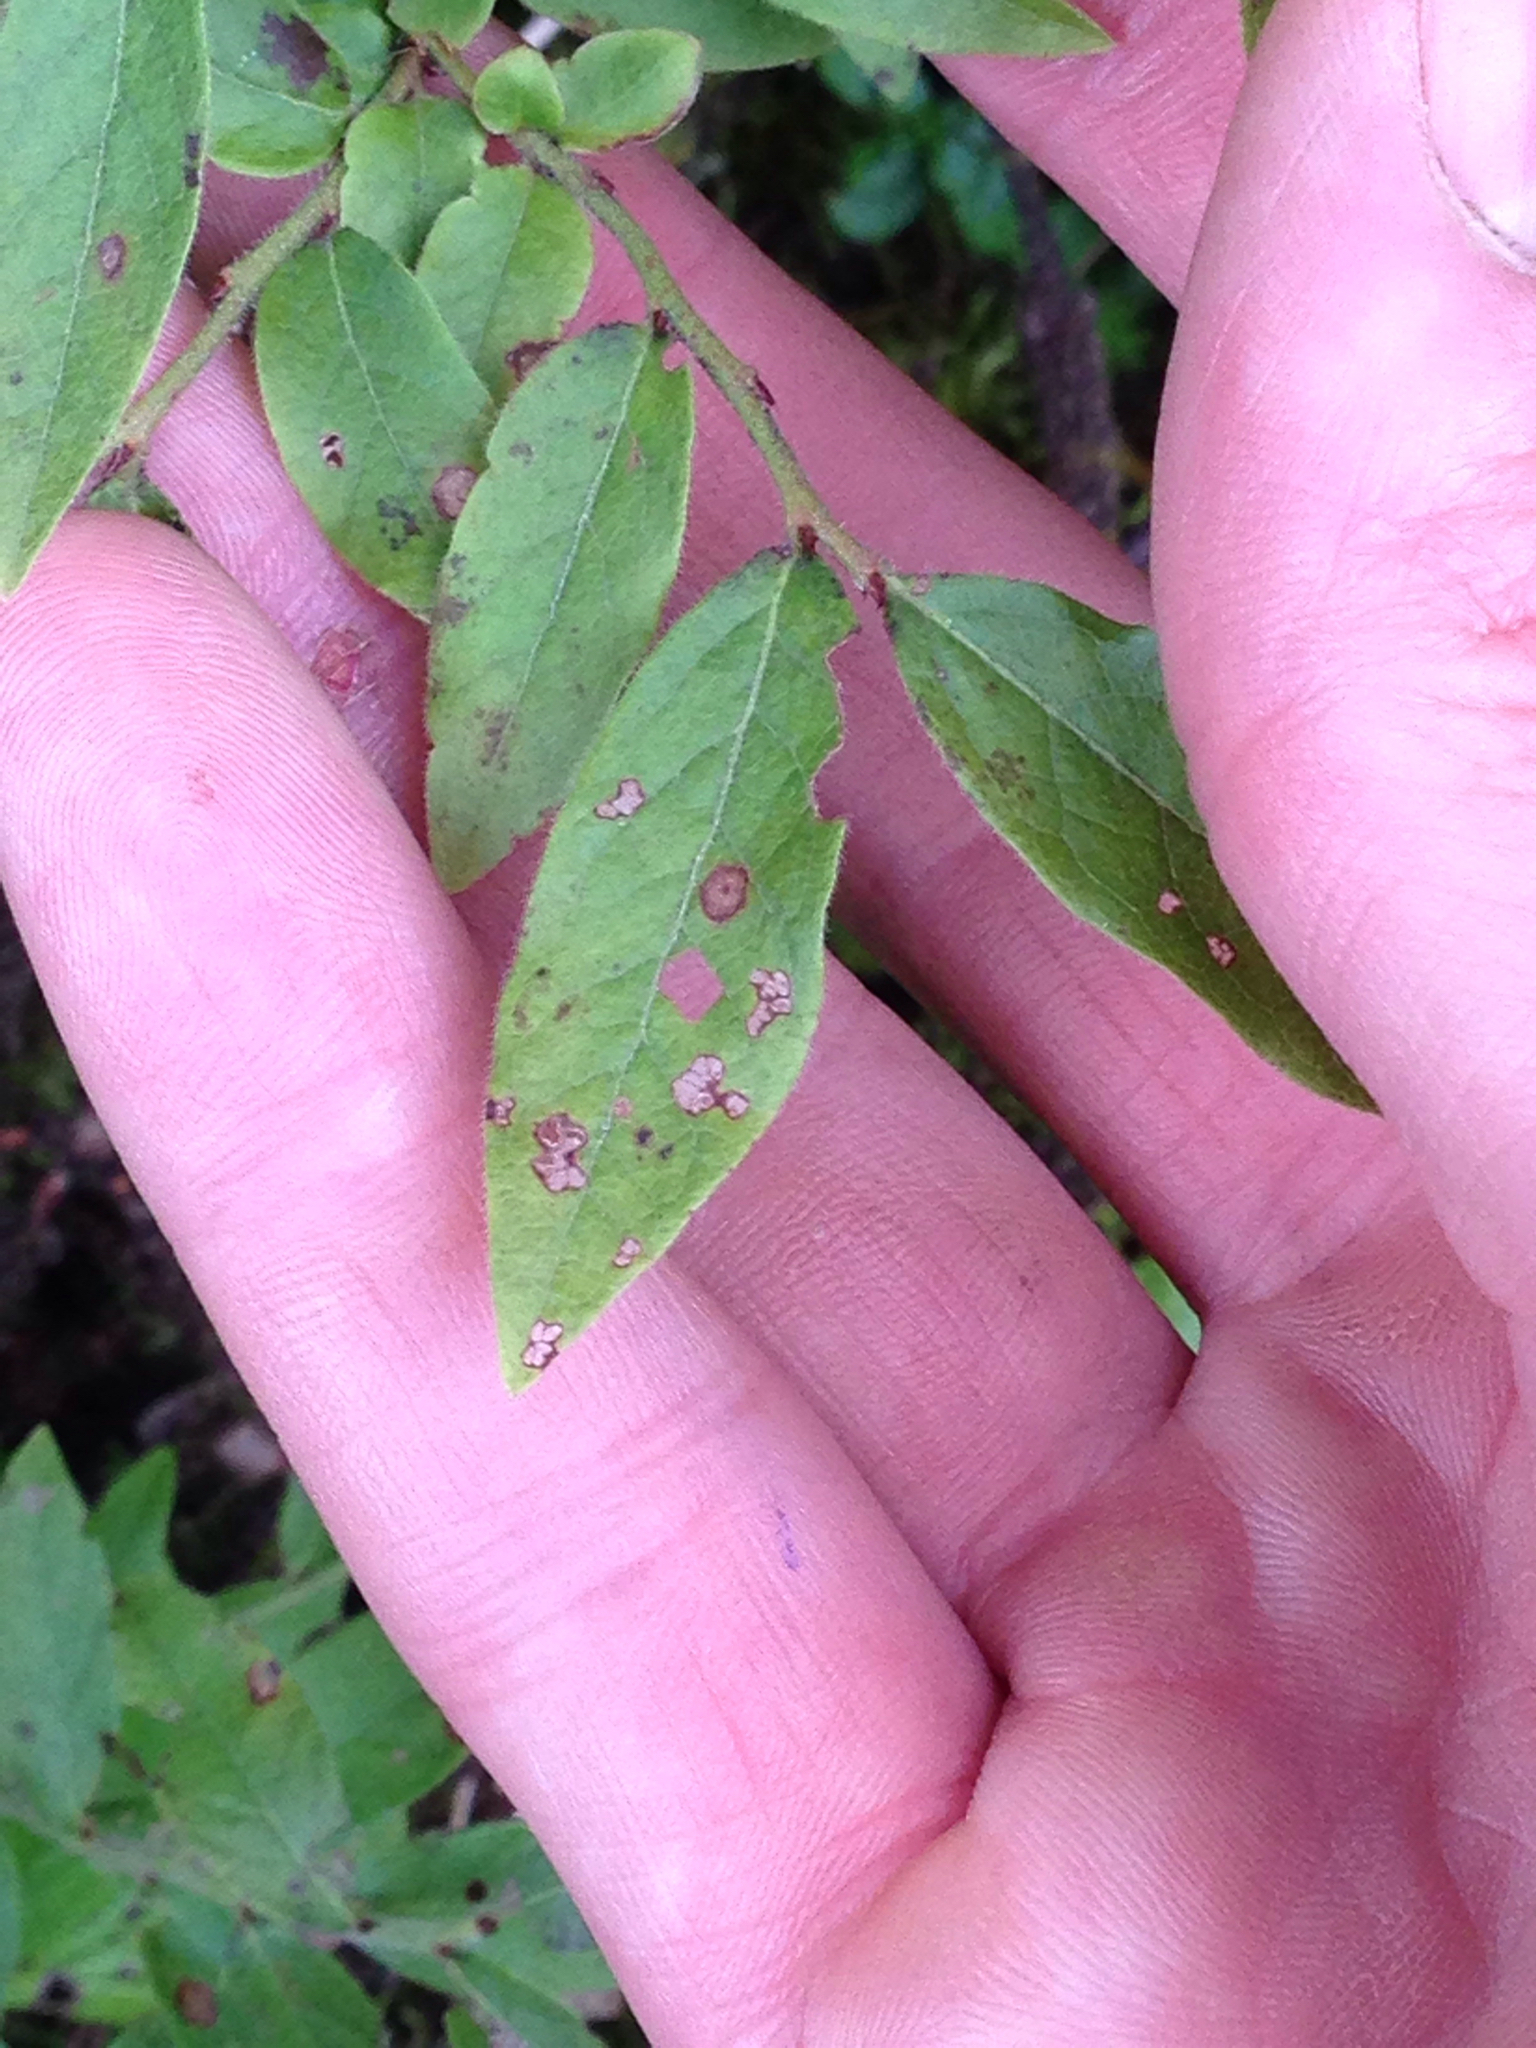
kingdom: Plantae
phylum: Tracheophyta
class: Magnoliopsida
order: Ericales
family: Ericaceae
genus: Vaccinium
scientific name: Vaccinium myrtilloides
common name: Canada blueberry
